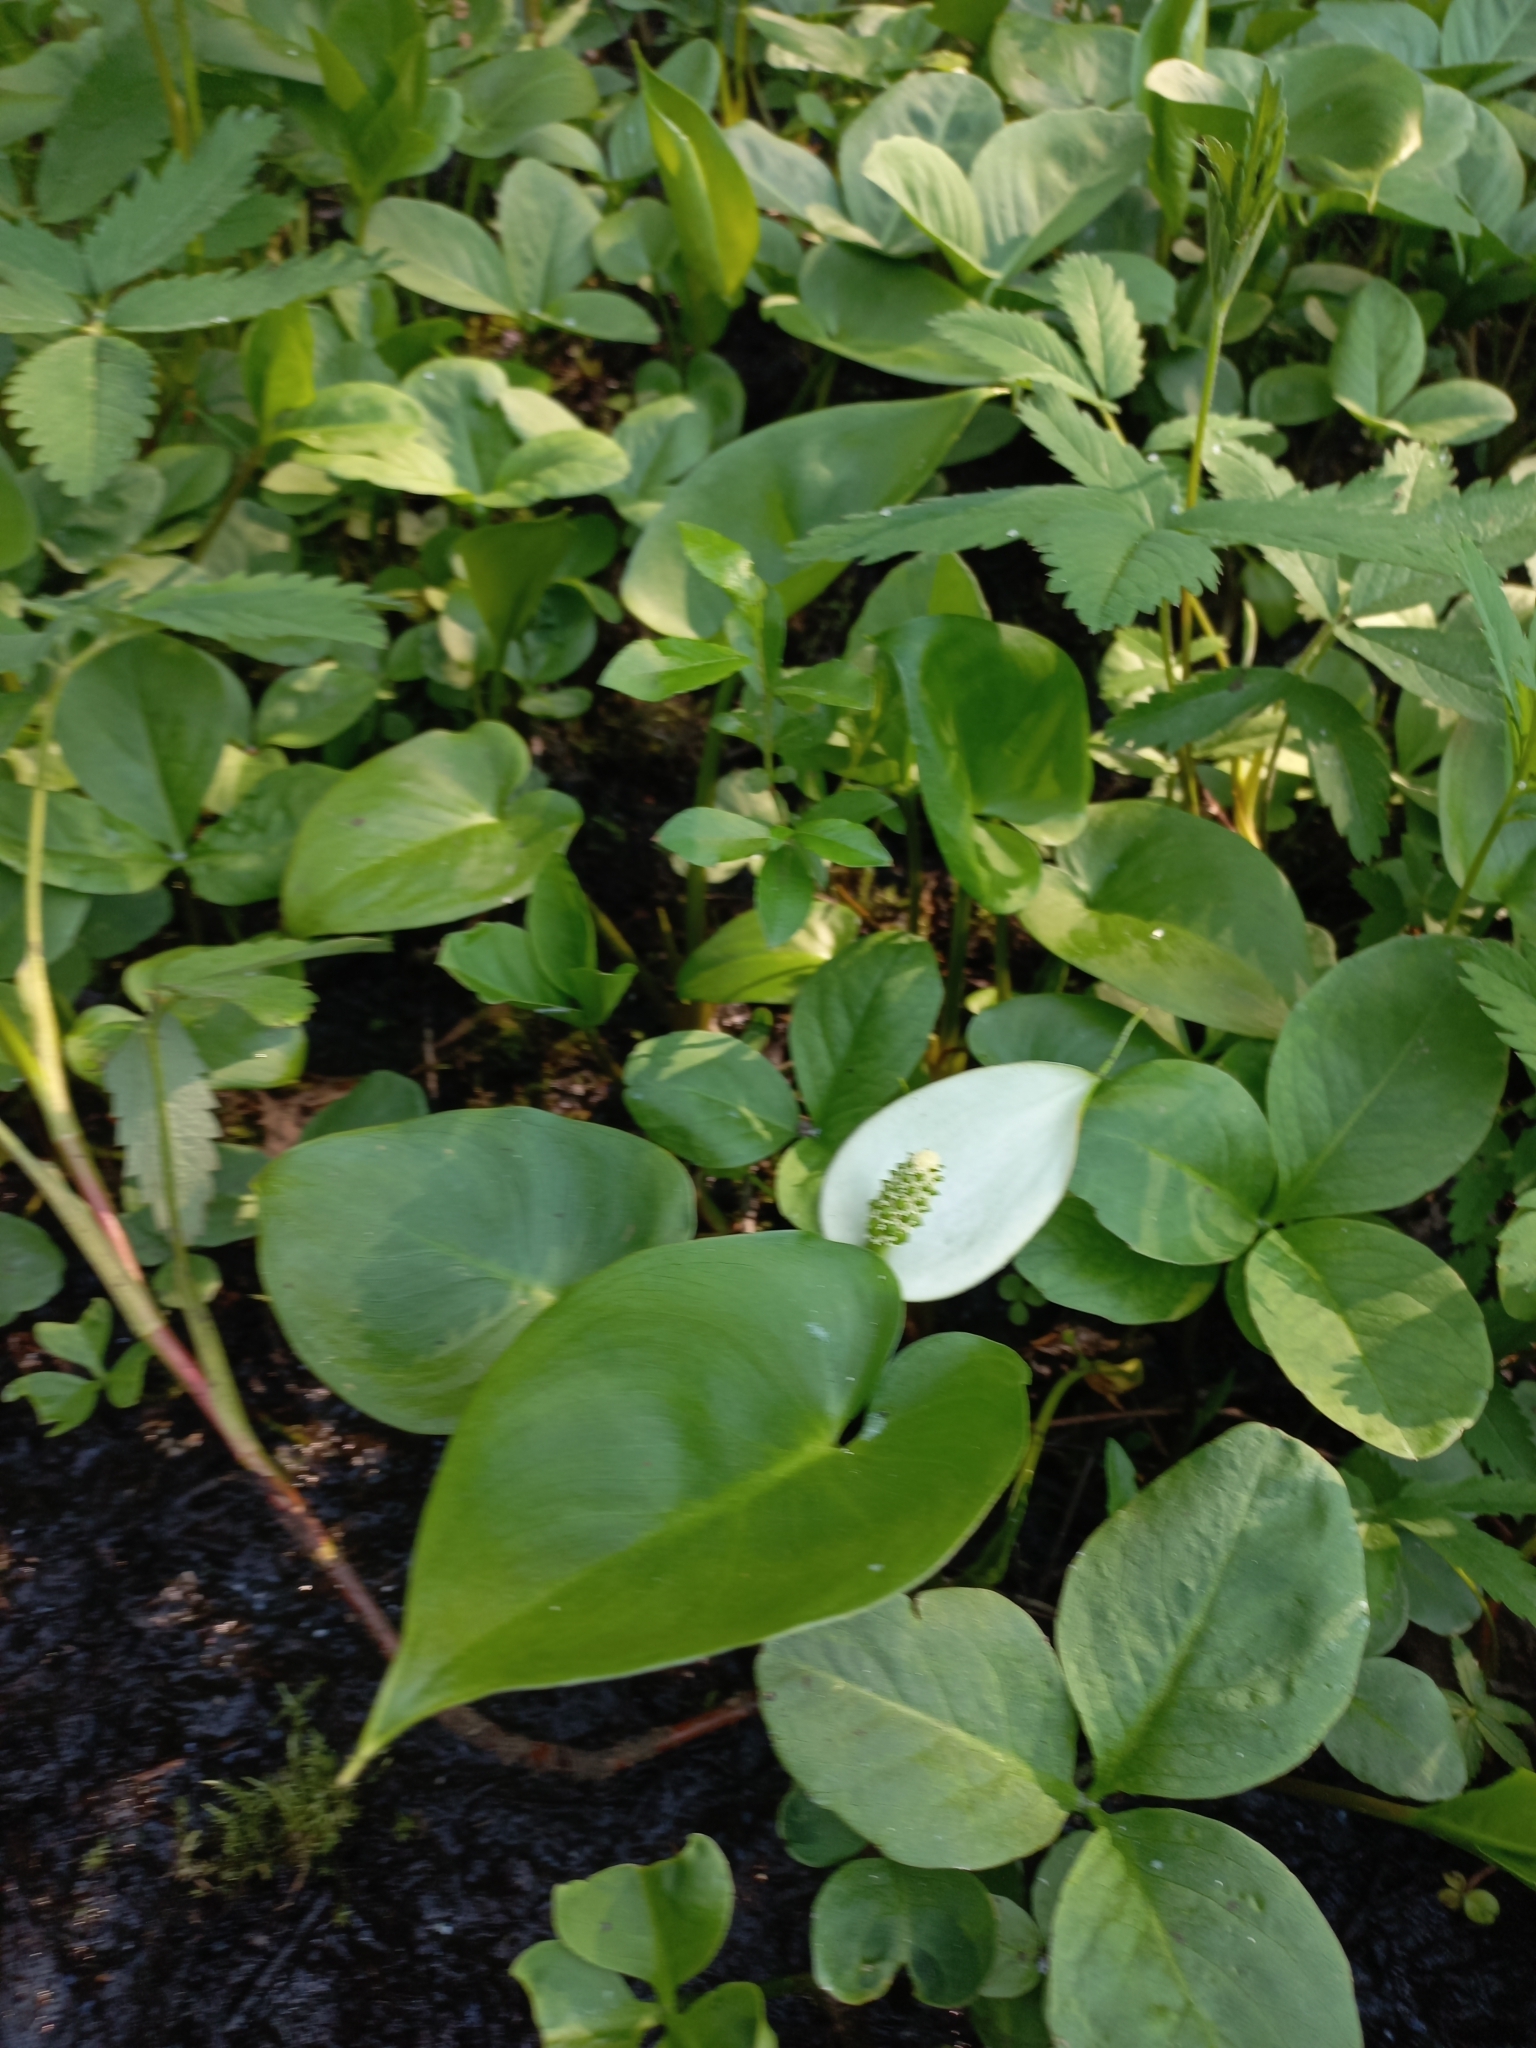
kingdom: Plantae
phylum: Tracheophyta
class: Liliopsida
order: Alismatales
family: Araceae
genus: Calla
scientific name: Calla palustris
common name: Bog arum
